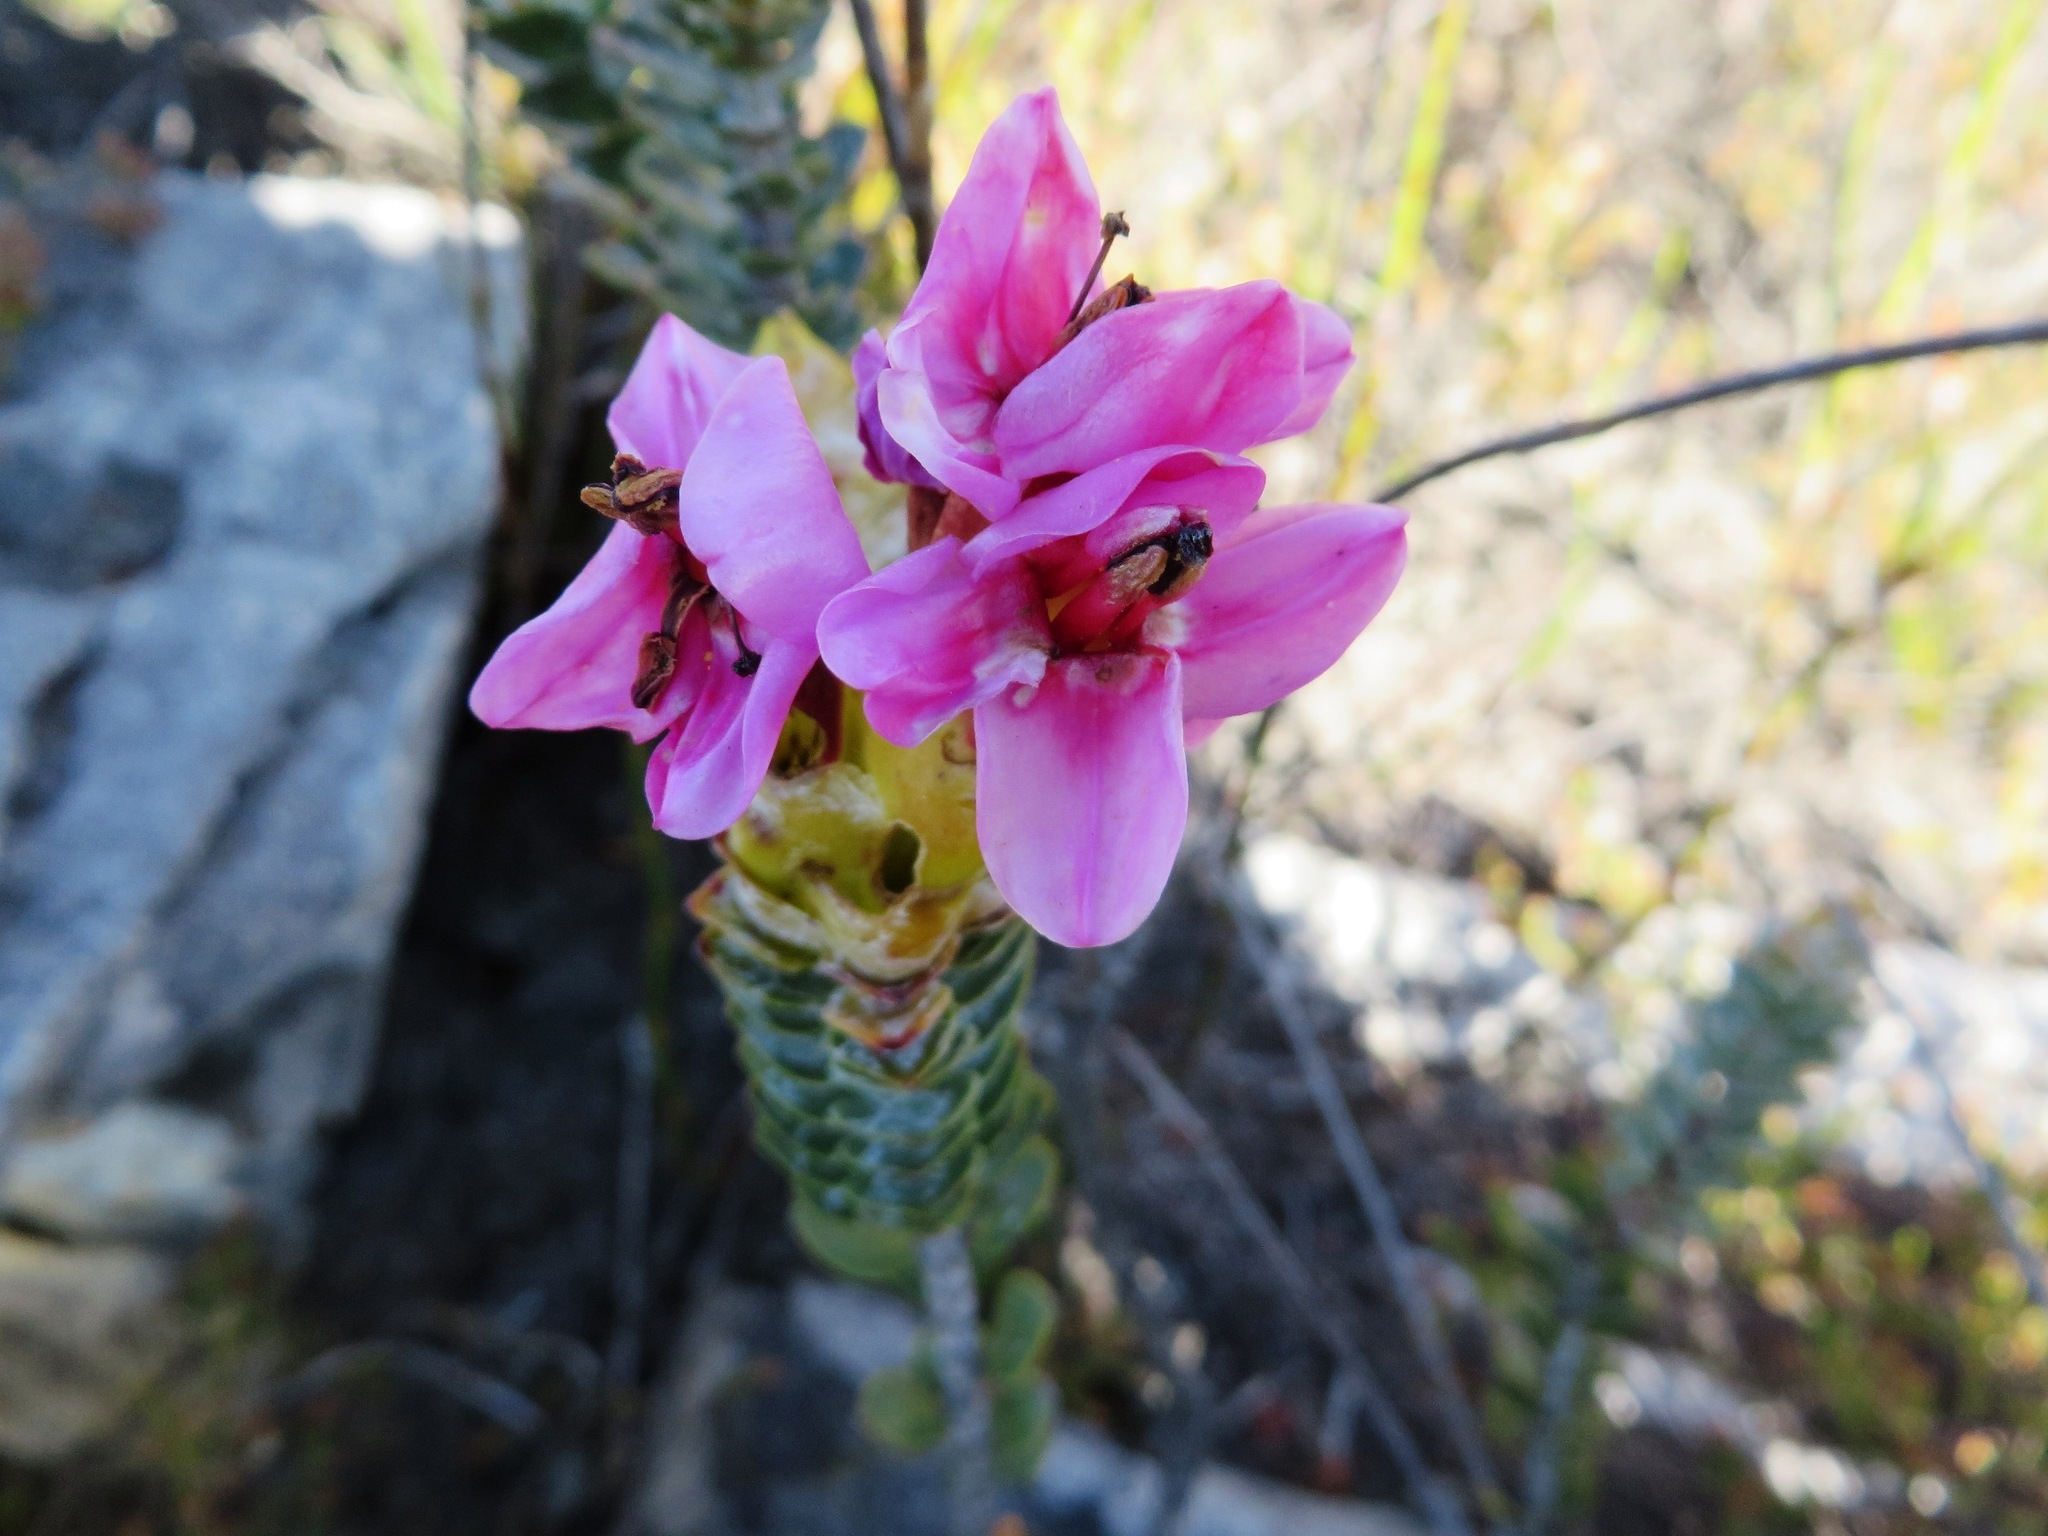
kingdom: Plantae
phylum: Tracheophyta
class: Magnoliopsida
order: Myrtales
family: Penaeaceae
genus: Saltera
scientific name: Saltera sarcocolla
